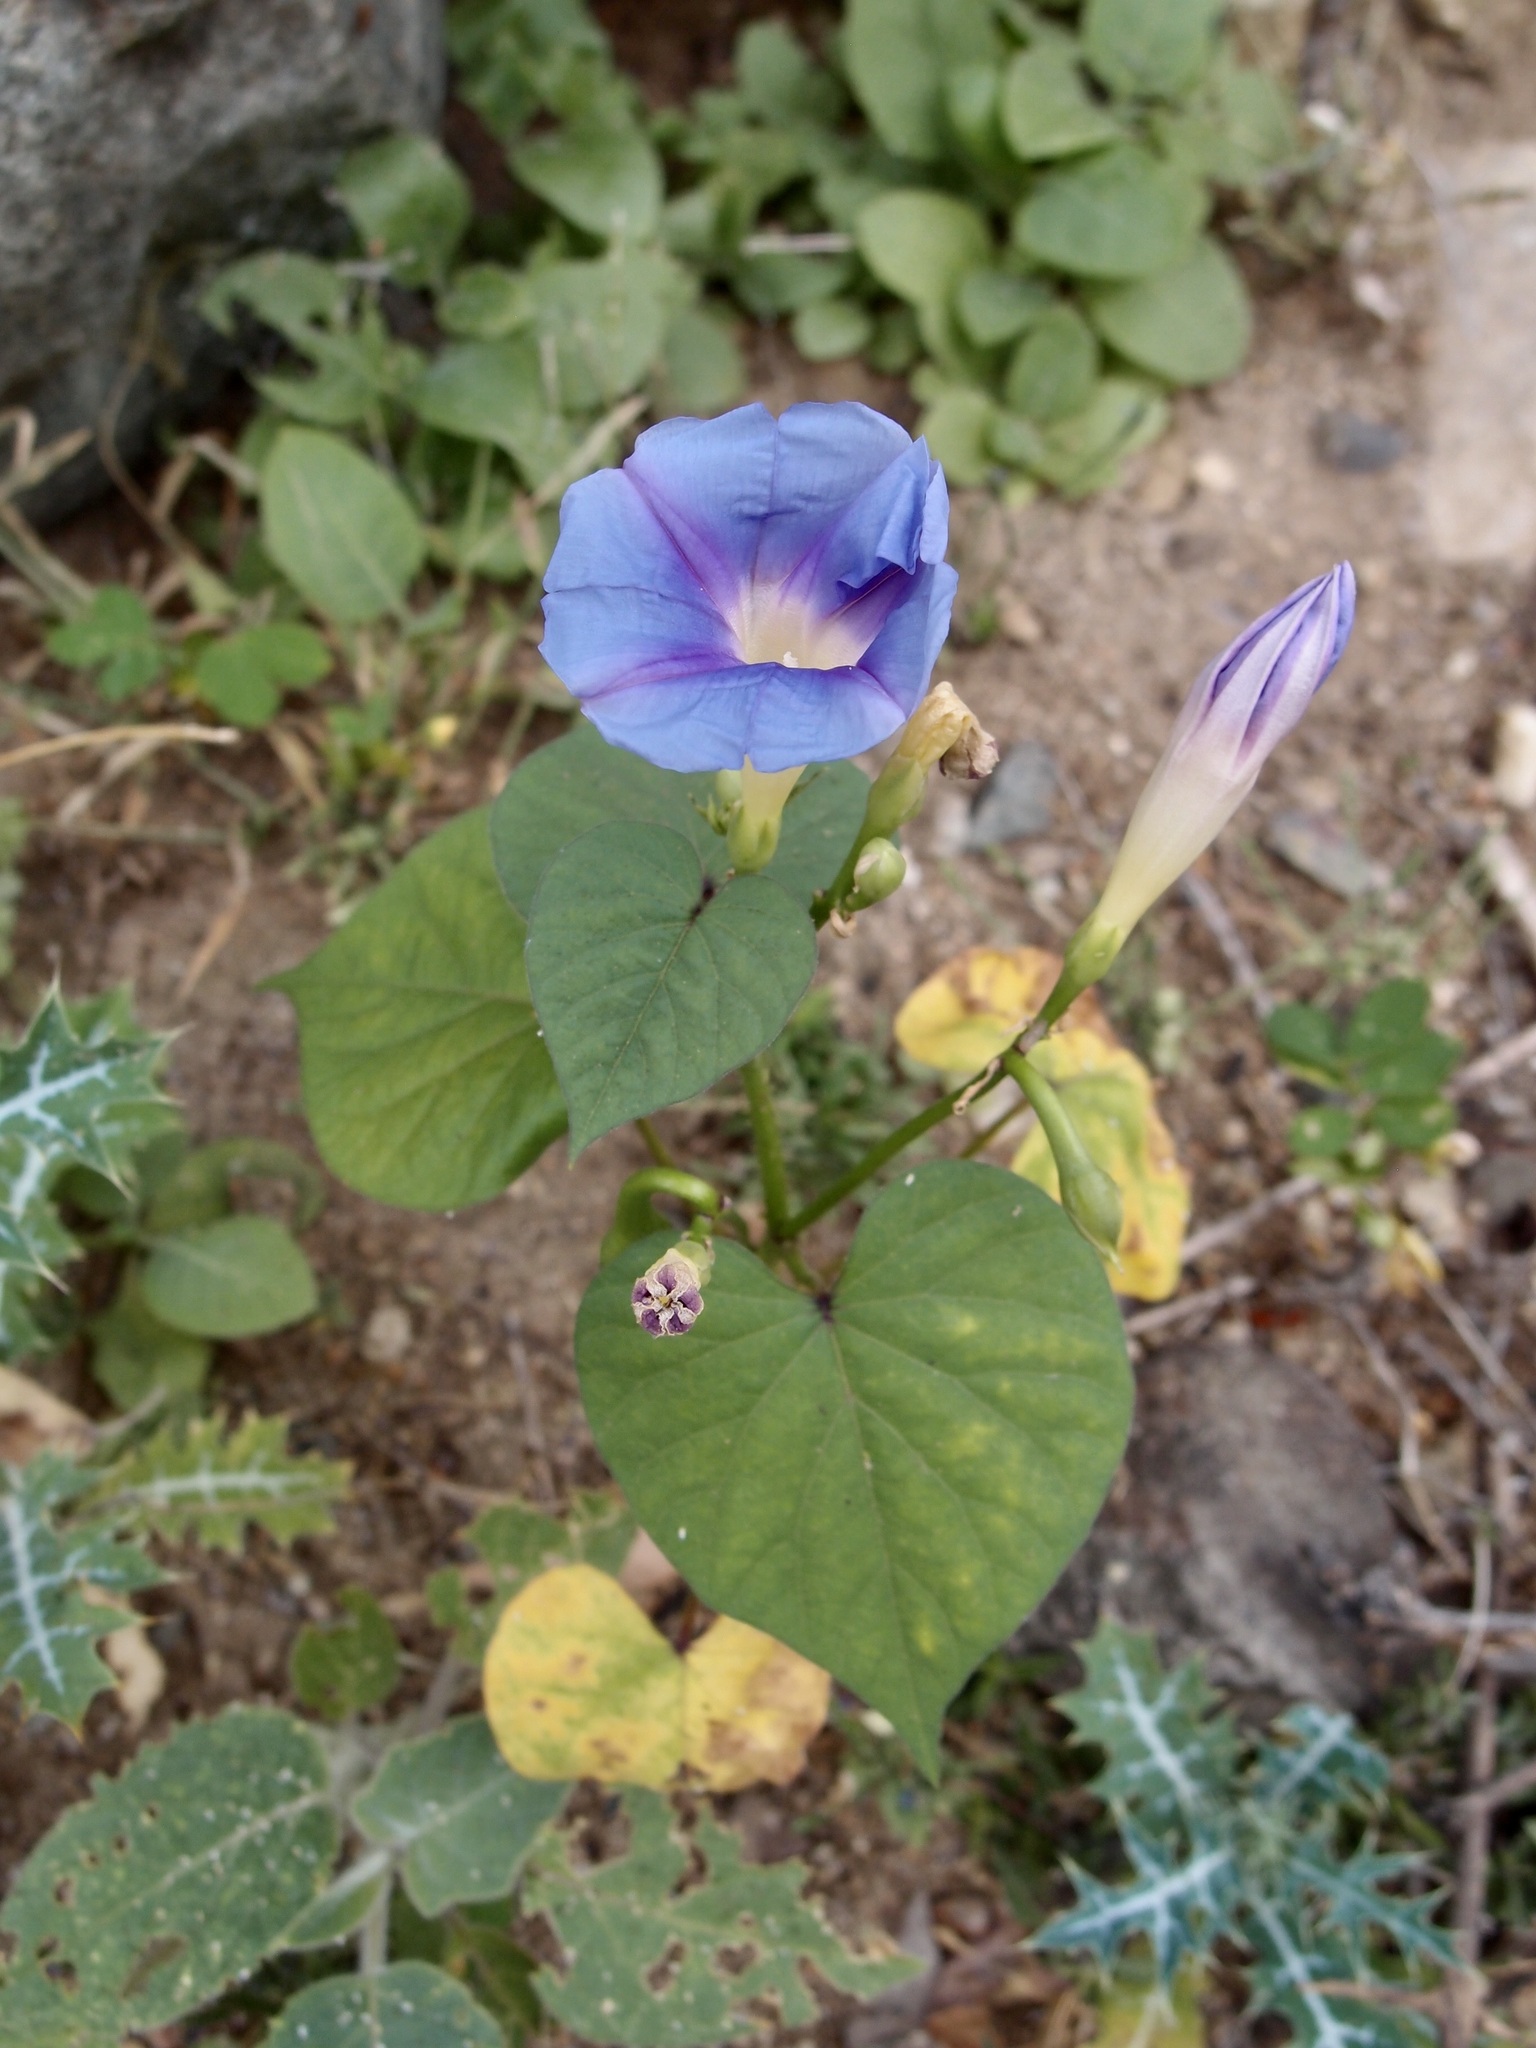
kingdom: Plantae
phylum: Tracheophyta
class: Magnoliopsida
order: Solanales
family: Convolvulaceae
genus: Ipomoea
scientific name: Ipomoea parasitica
